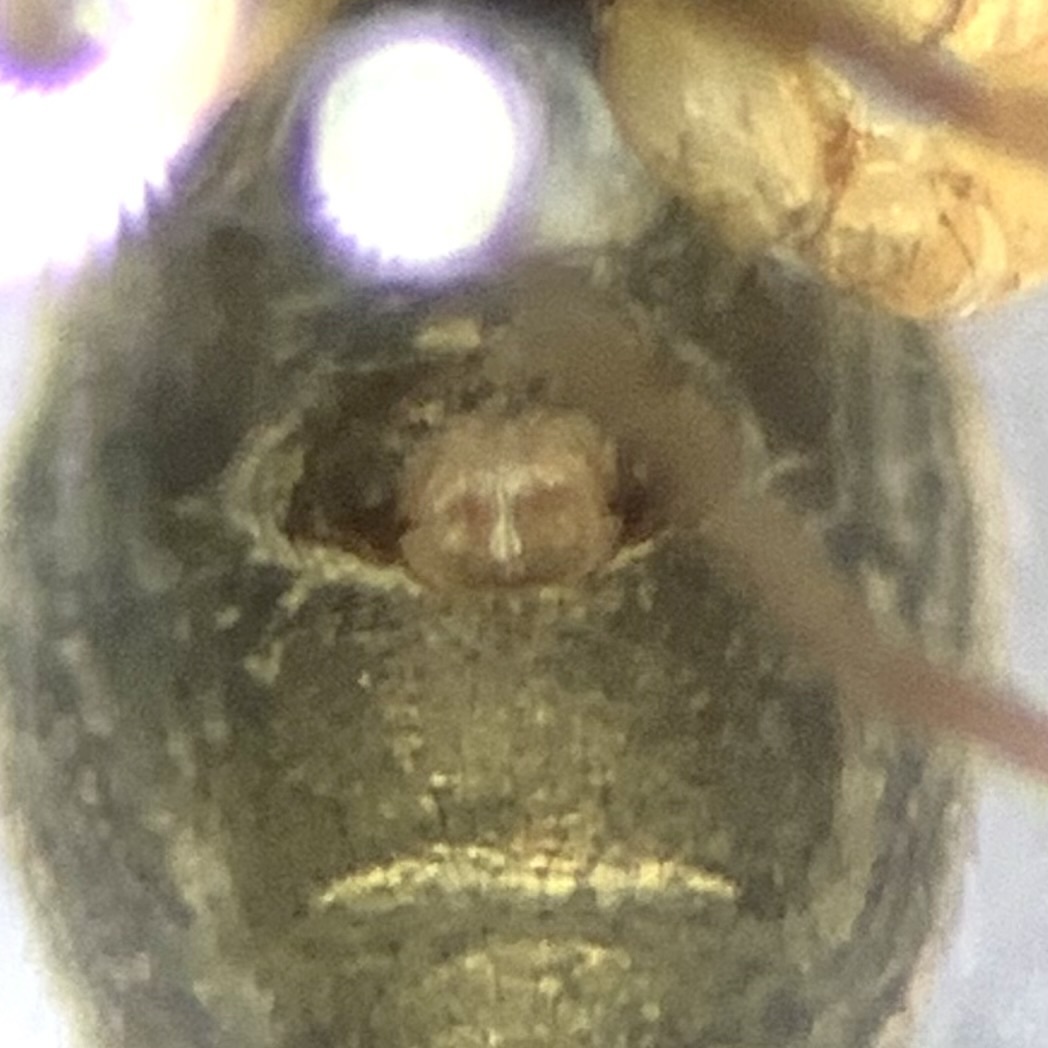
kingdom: Animalia
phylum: Arthropoda
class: Arachnida
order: Araneae
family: Linyphiidae
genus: Tenuiphantes
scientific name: Tenuiphantes flavipes
